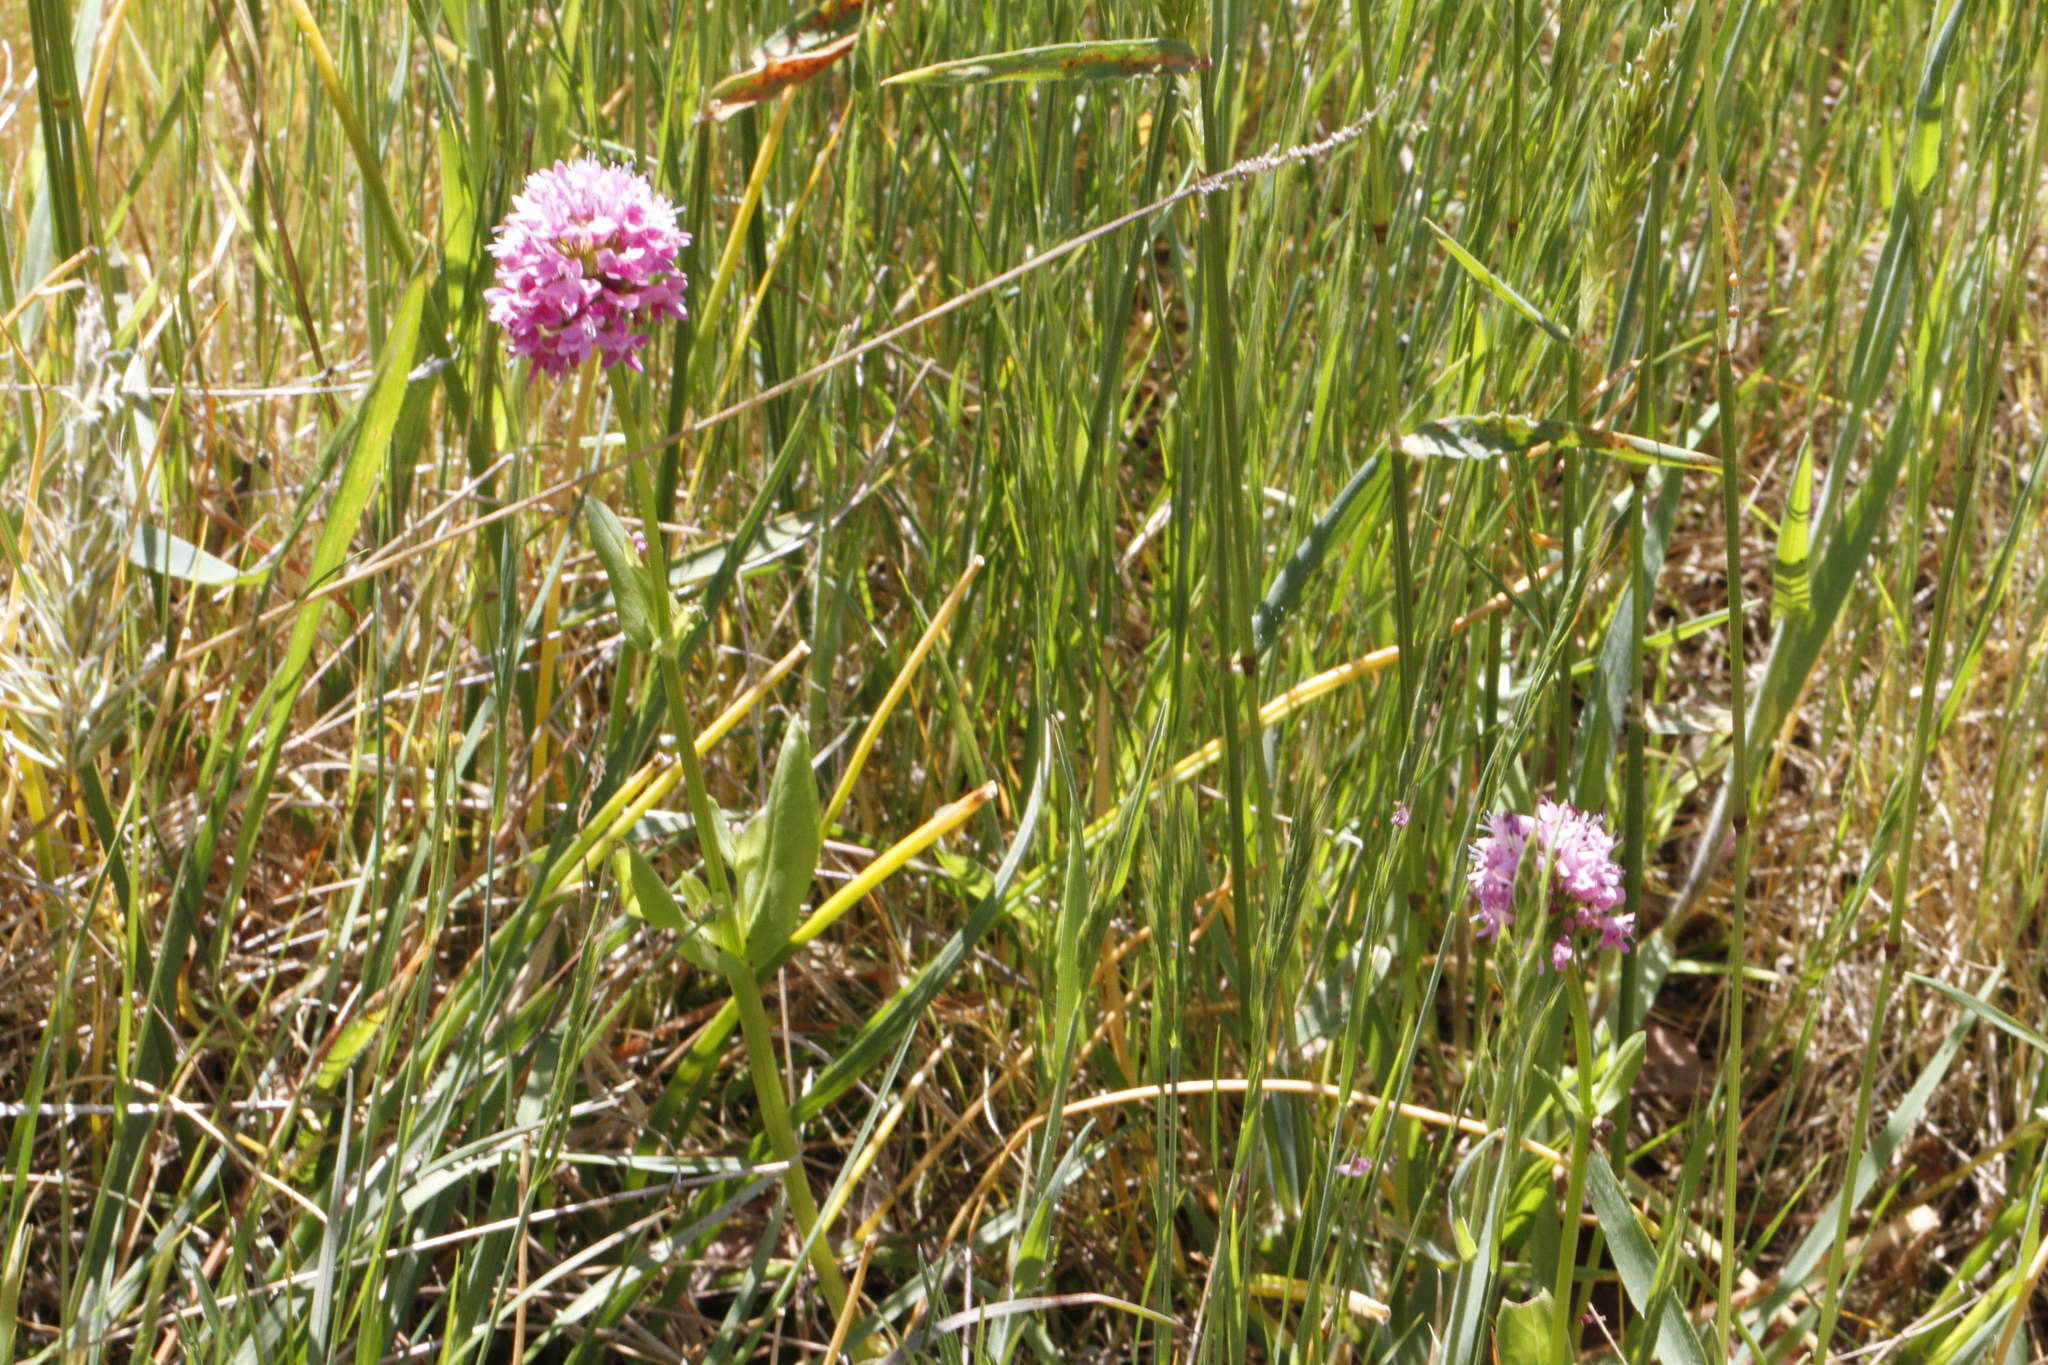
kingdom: Plantae
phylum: Tracheophyta
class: Magnoliopsida
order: Dipsacales
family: Caprifoliaceae
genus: Plectritis
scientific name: Plectritis congesta
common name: Pink plectritis
